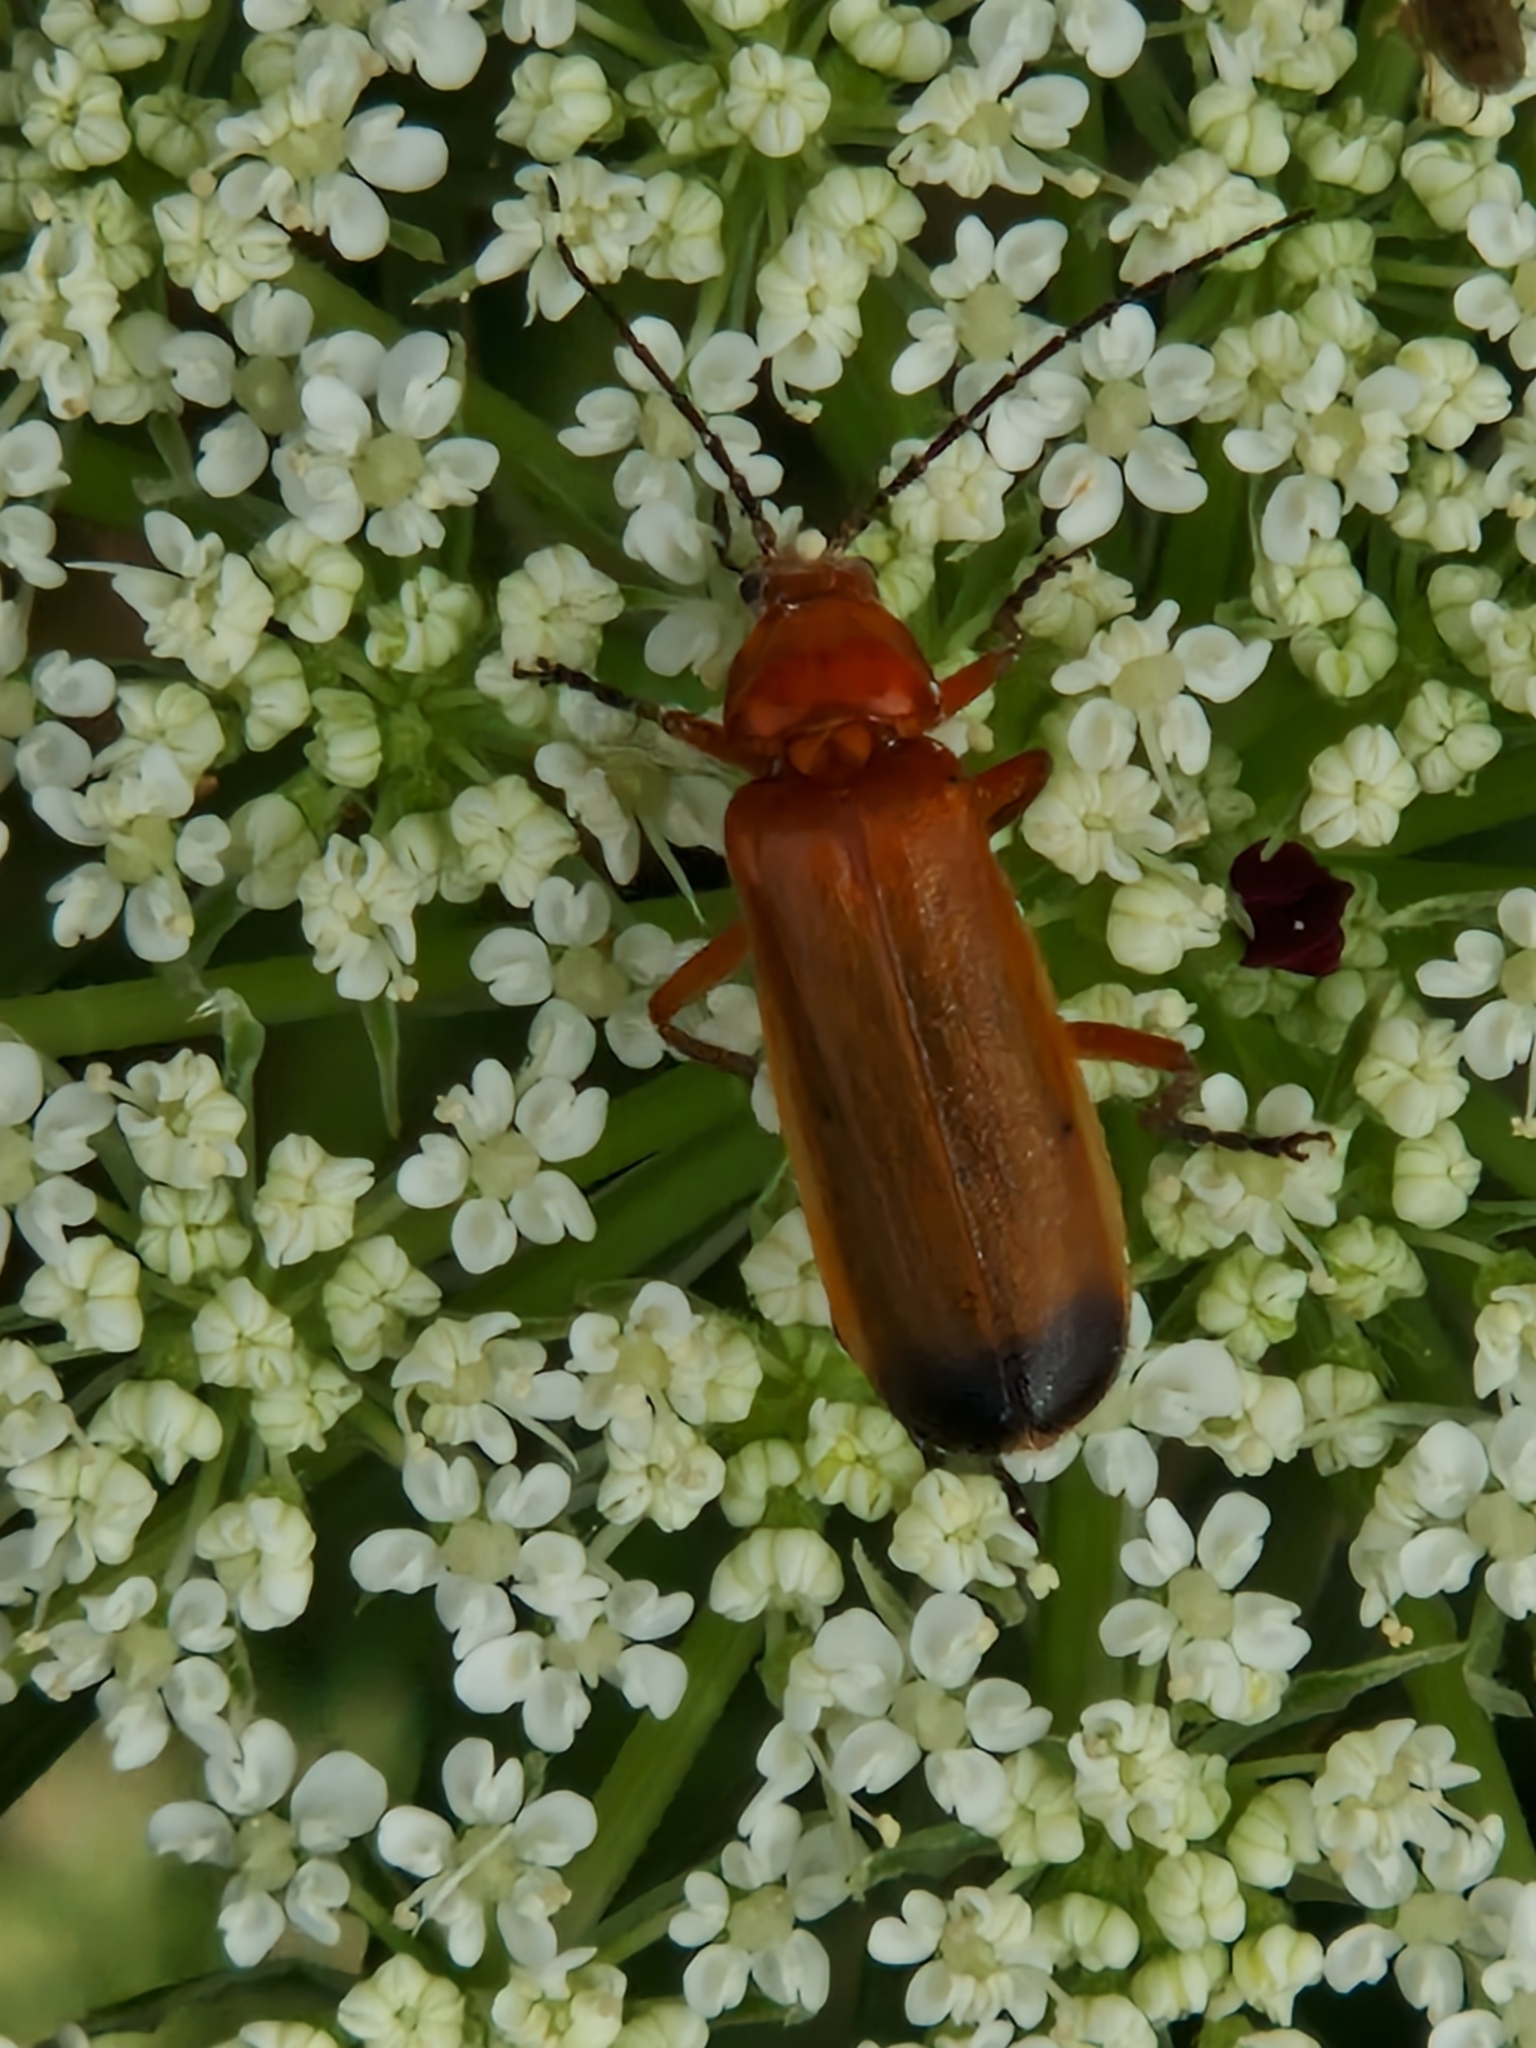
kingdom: Animalia
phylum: Arthropoda
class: Insecta
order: Coleoptera
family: Cantharidae
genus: Rhagonycha
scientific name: Rhagonycha fulva
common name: Common red soldier beetle
